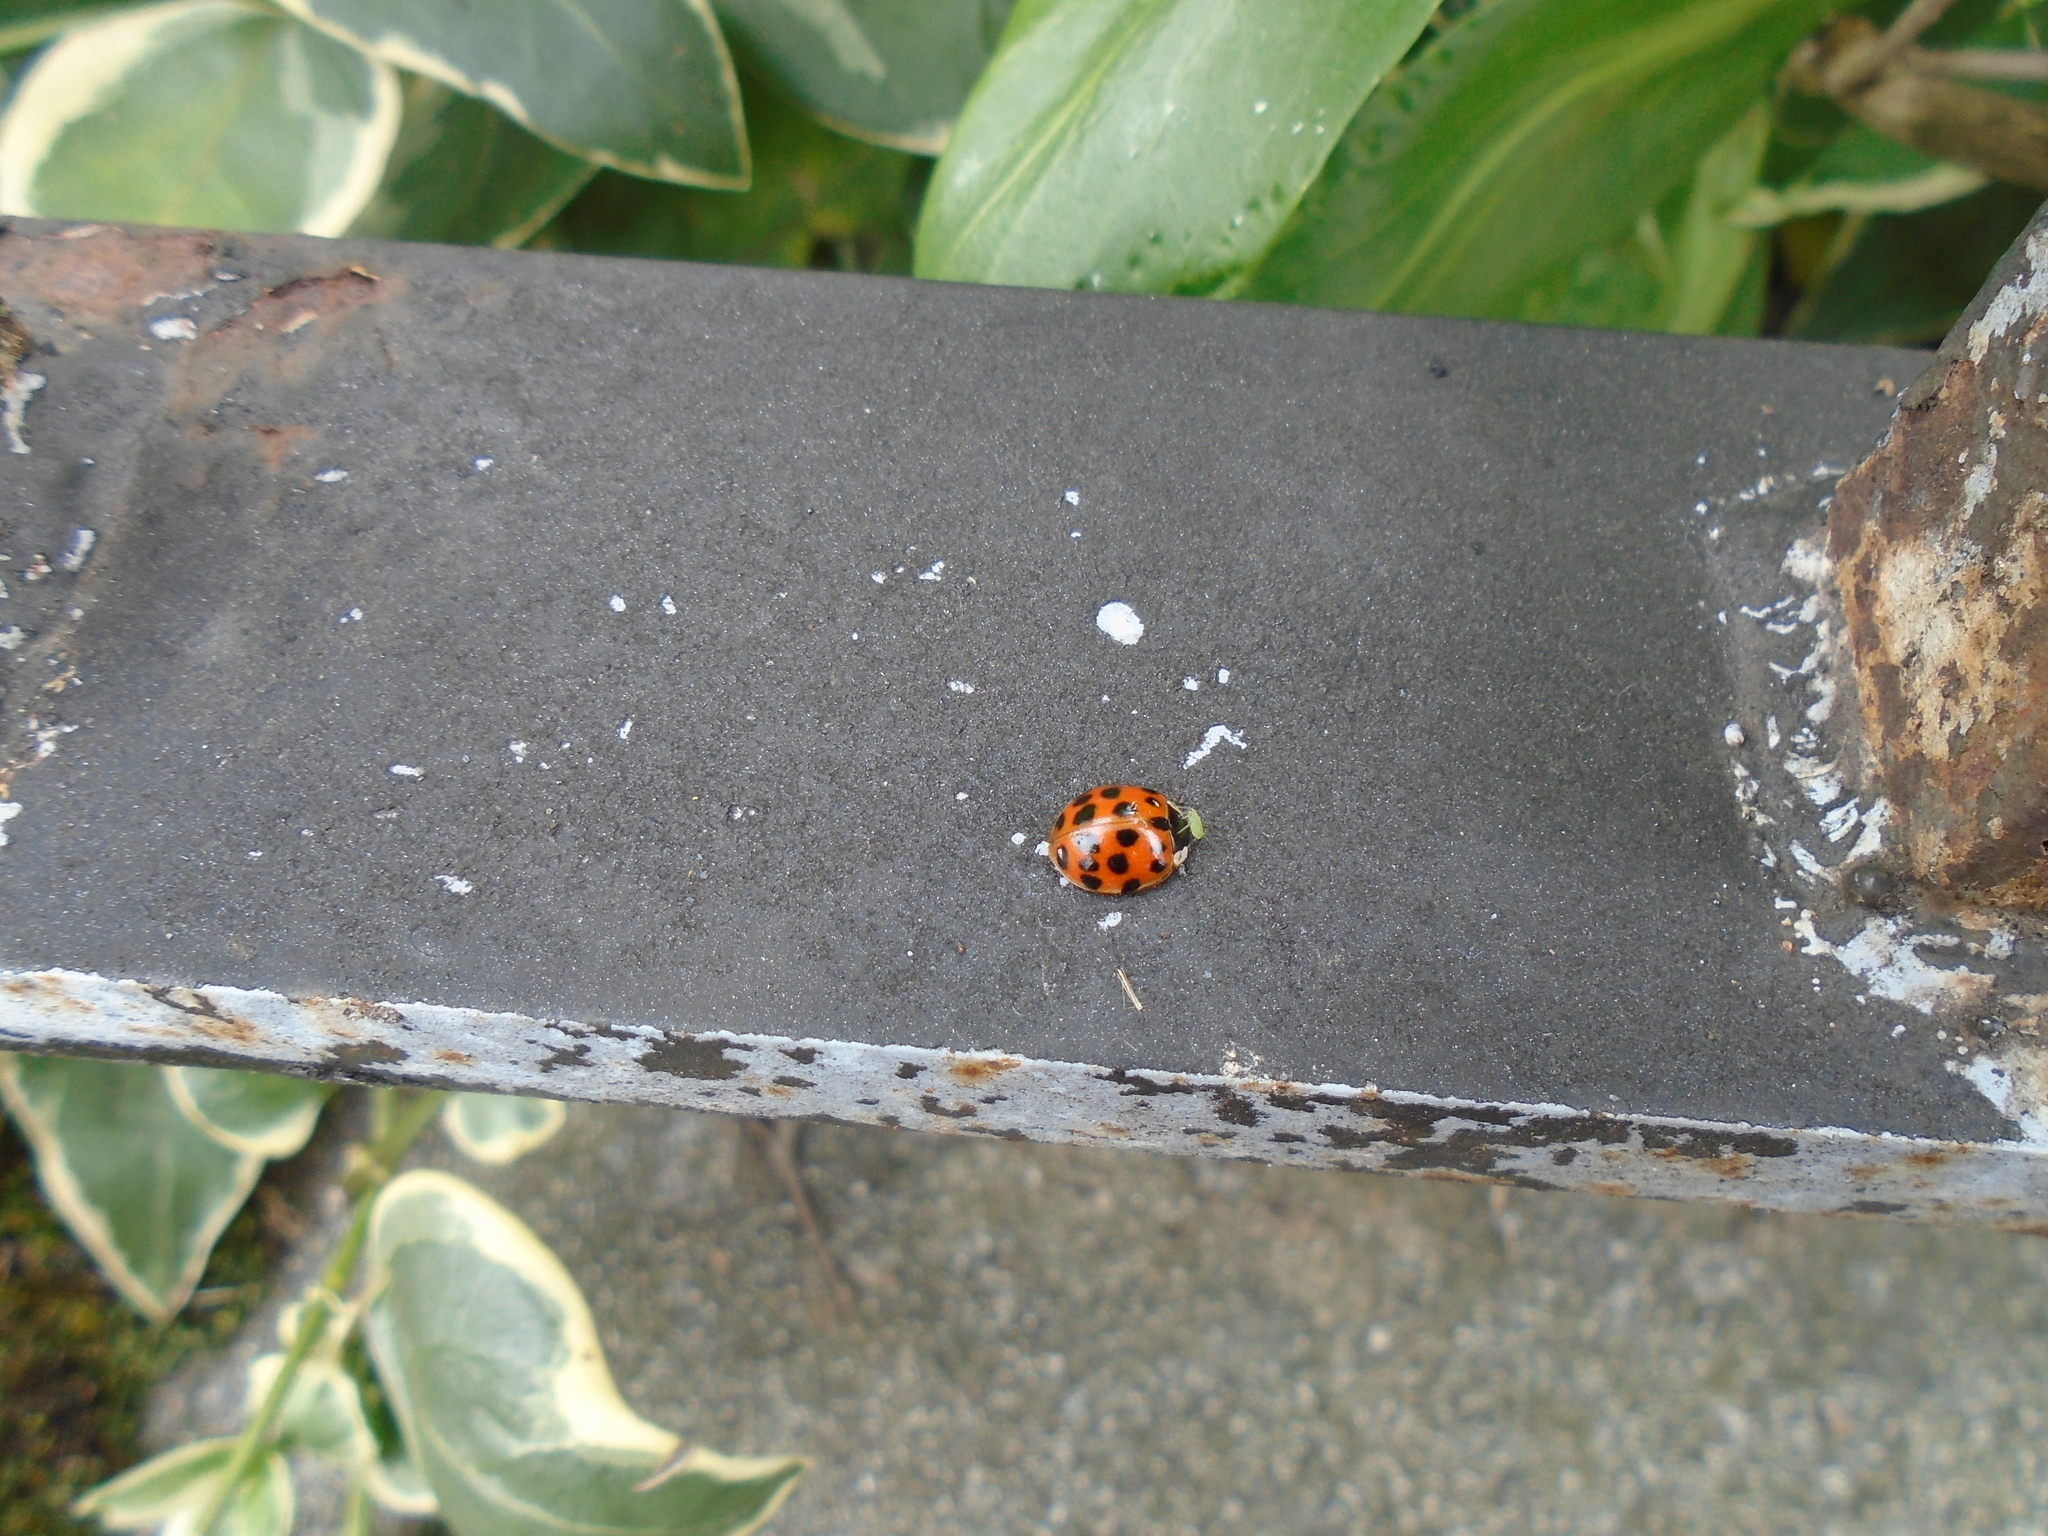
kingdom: Animalia
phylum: Arthropoda
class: Insecta
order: Coleoptera
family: Coccinellidae
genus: Harmonia
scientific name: Harmonia axyridis
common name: Harlequin ladybird
